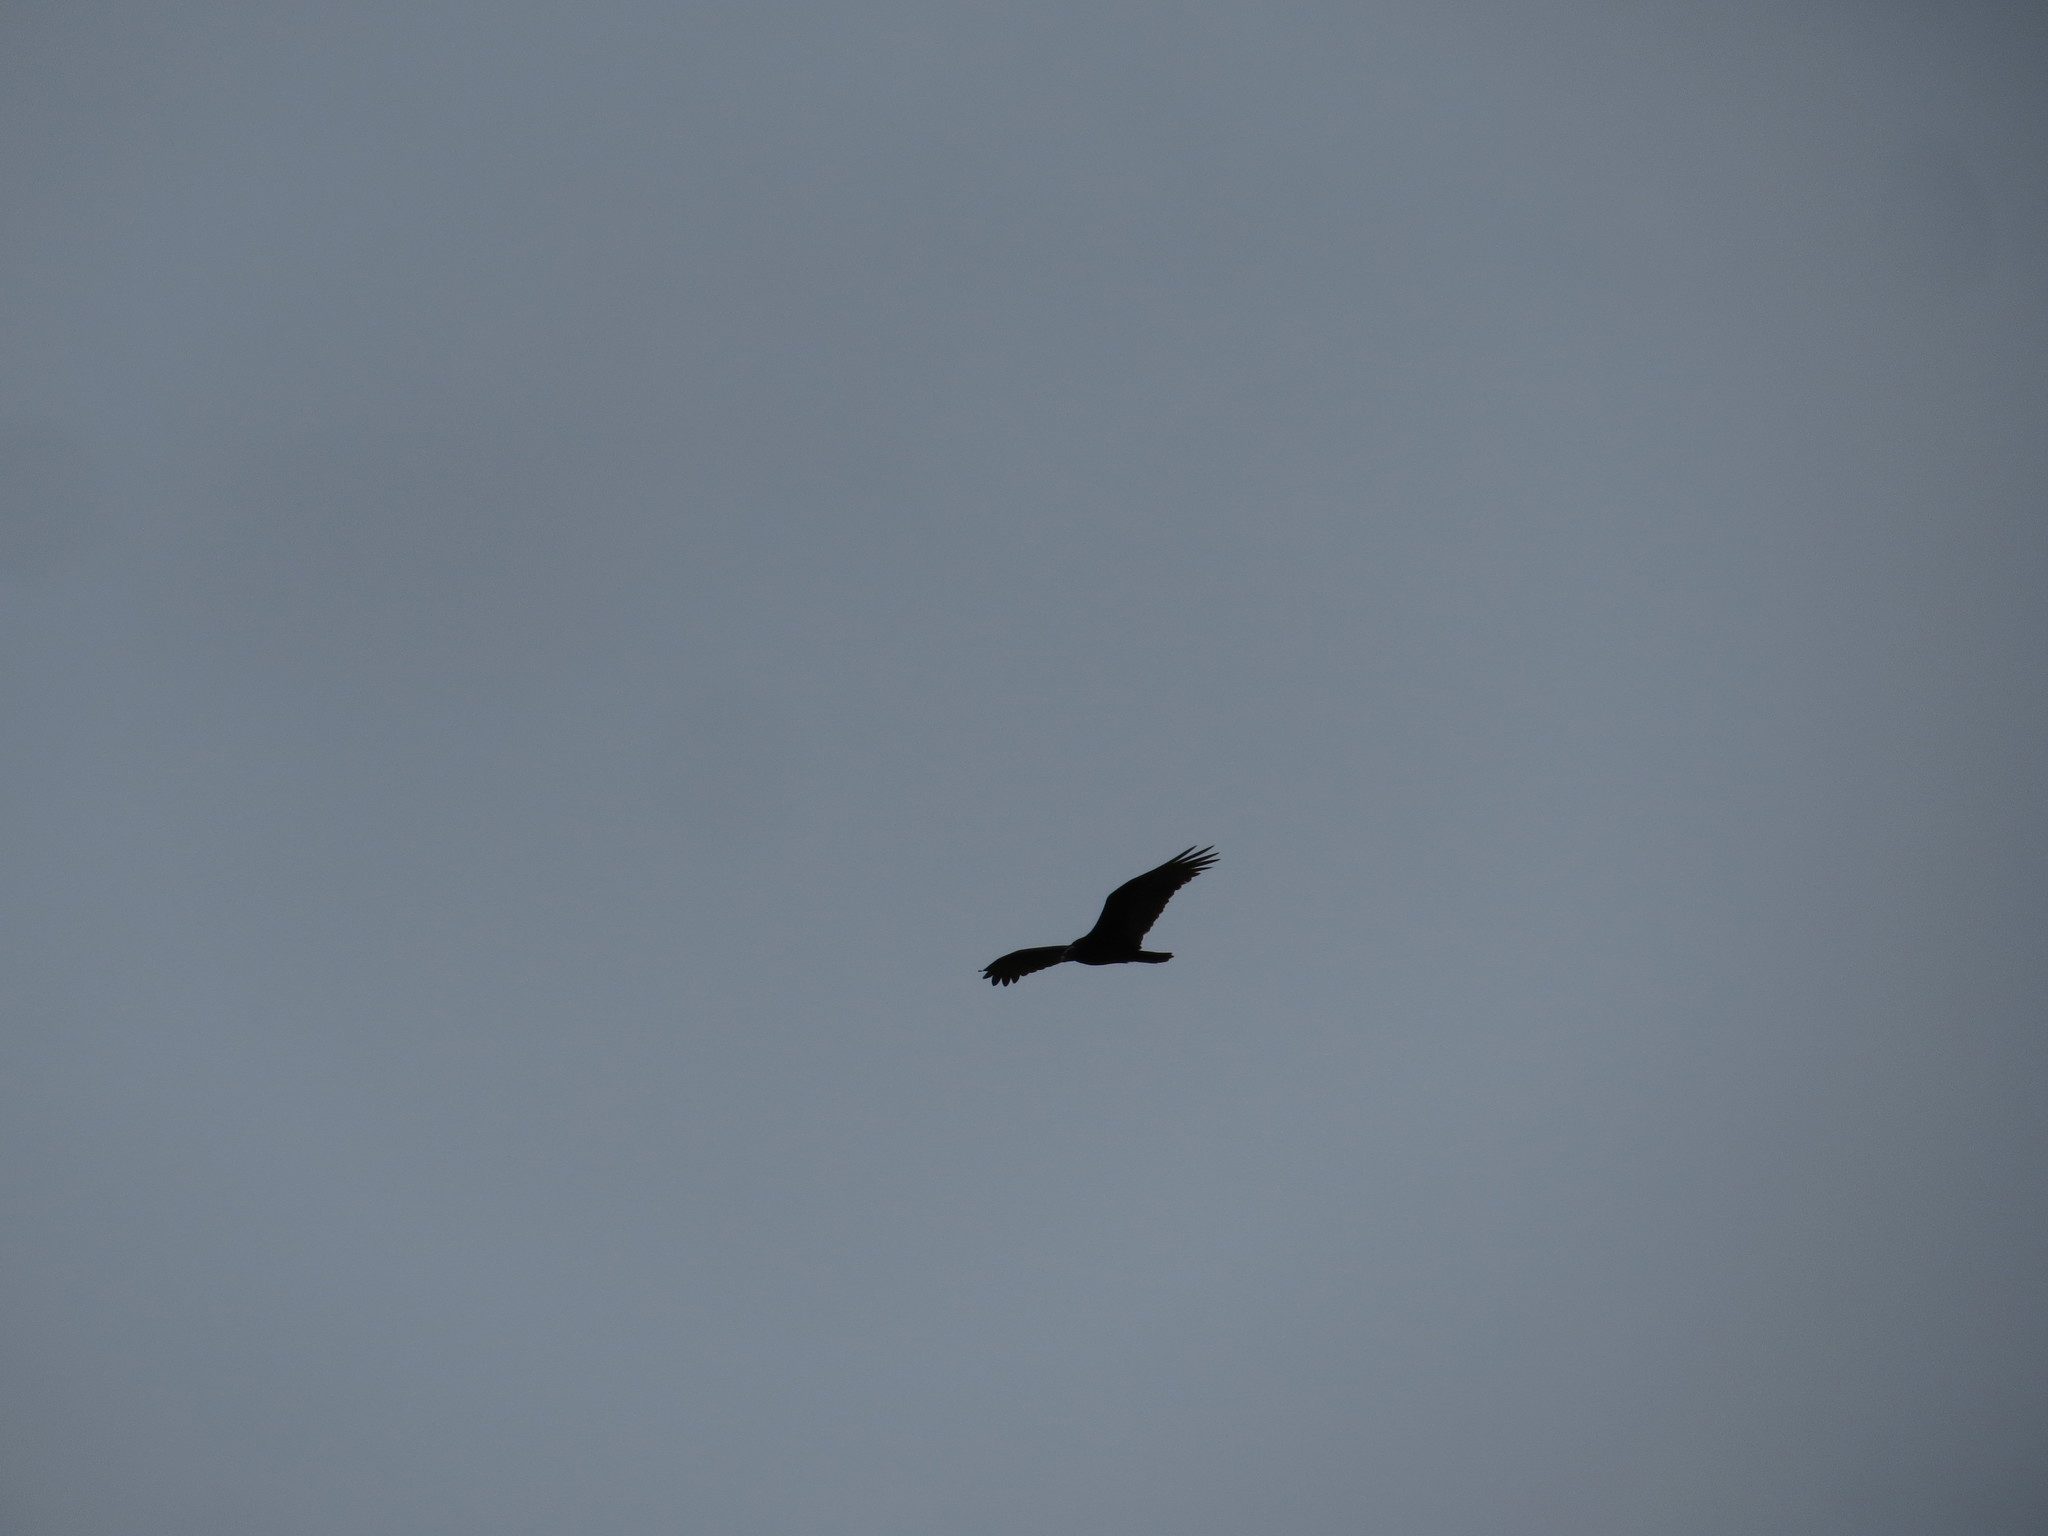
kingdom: Animalia
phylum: Chordata
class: Aves
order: Accipitriformes
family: Cathartidae
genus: Cathartes
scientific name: Cathartes aura
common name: Turkey vulture
